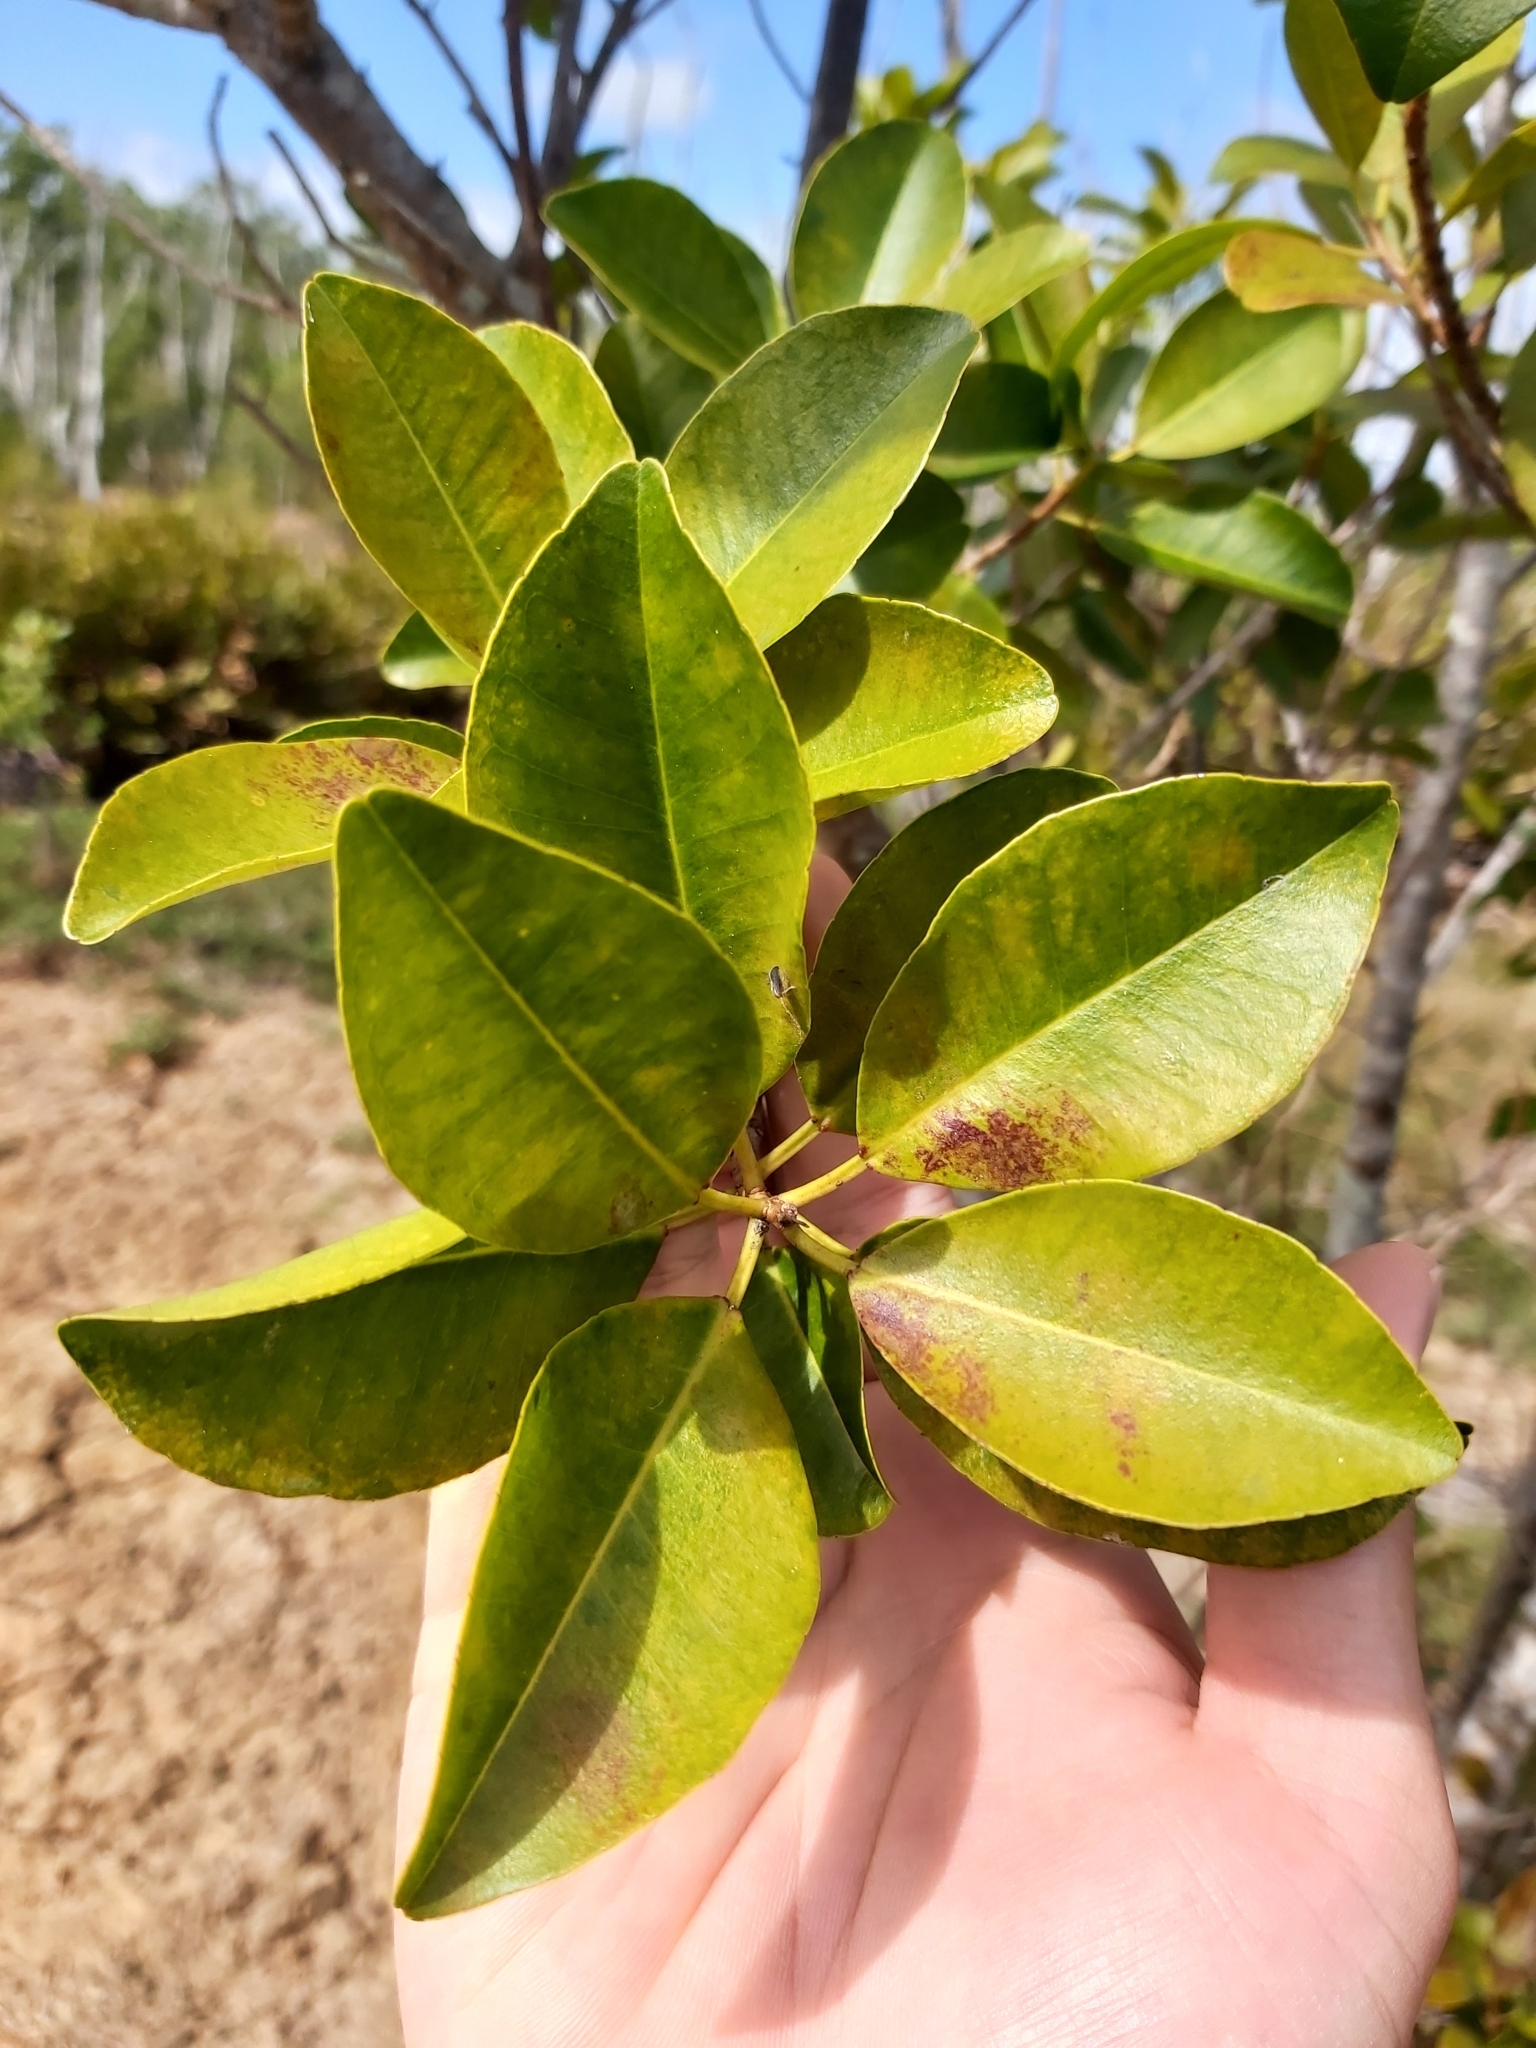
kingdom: Plantae
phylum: Tracheophyta
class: Magnoliopsida
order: Malpighiales
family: Euphorbiaceae
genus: Excoecaria
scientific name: Excoecaria agallocha
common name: River poisontree
